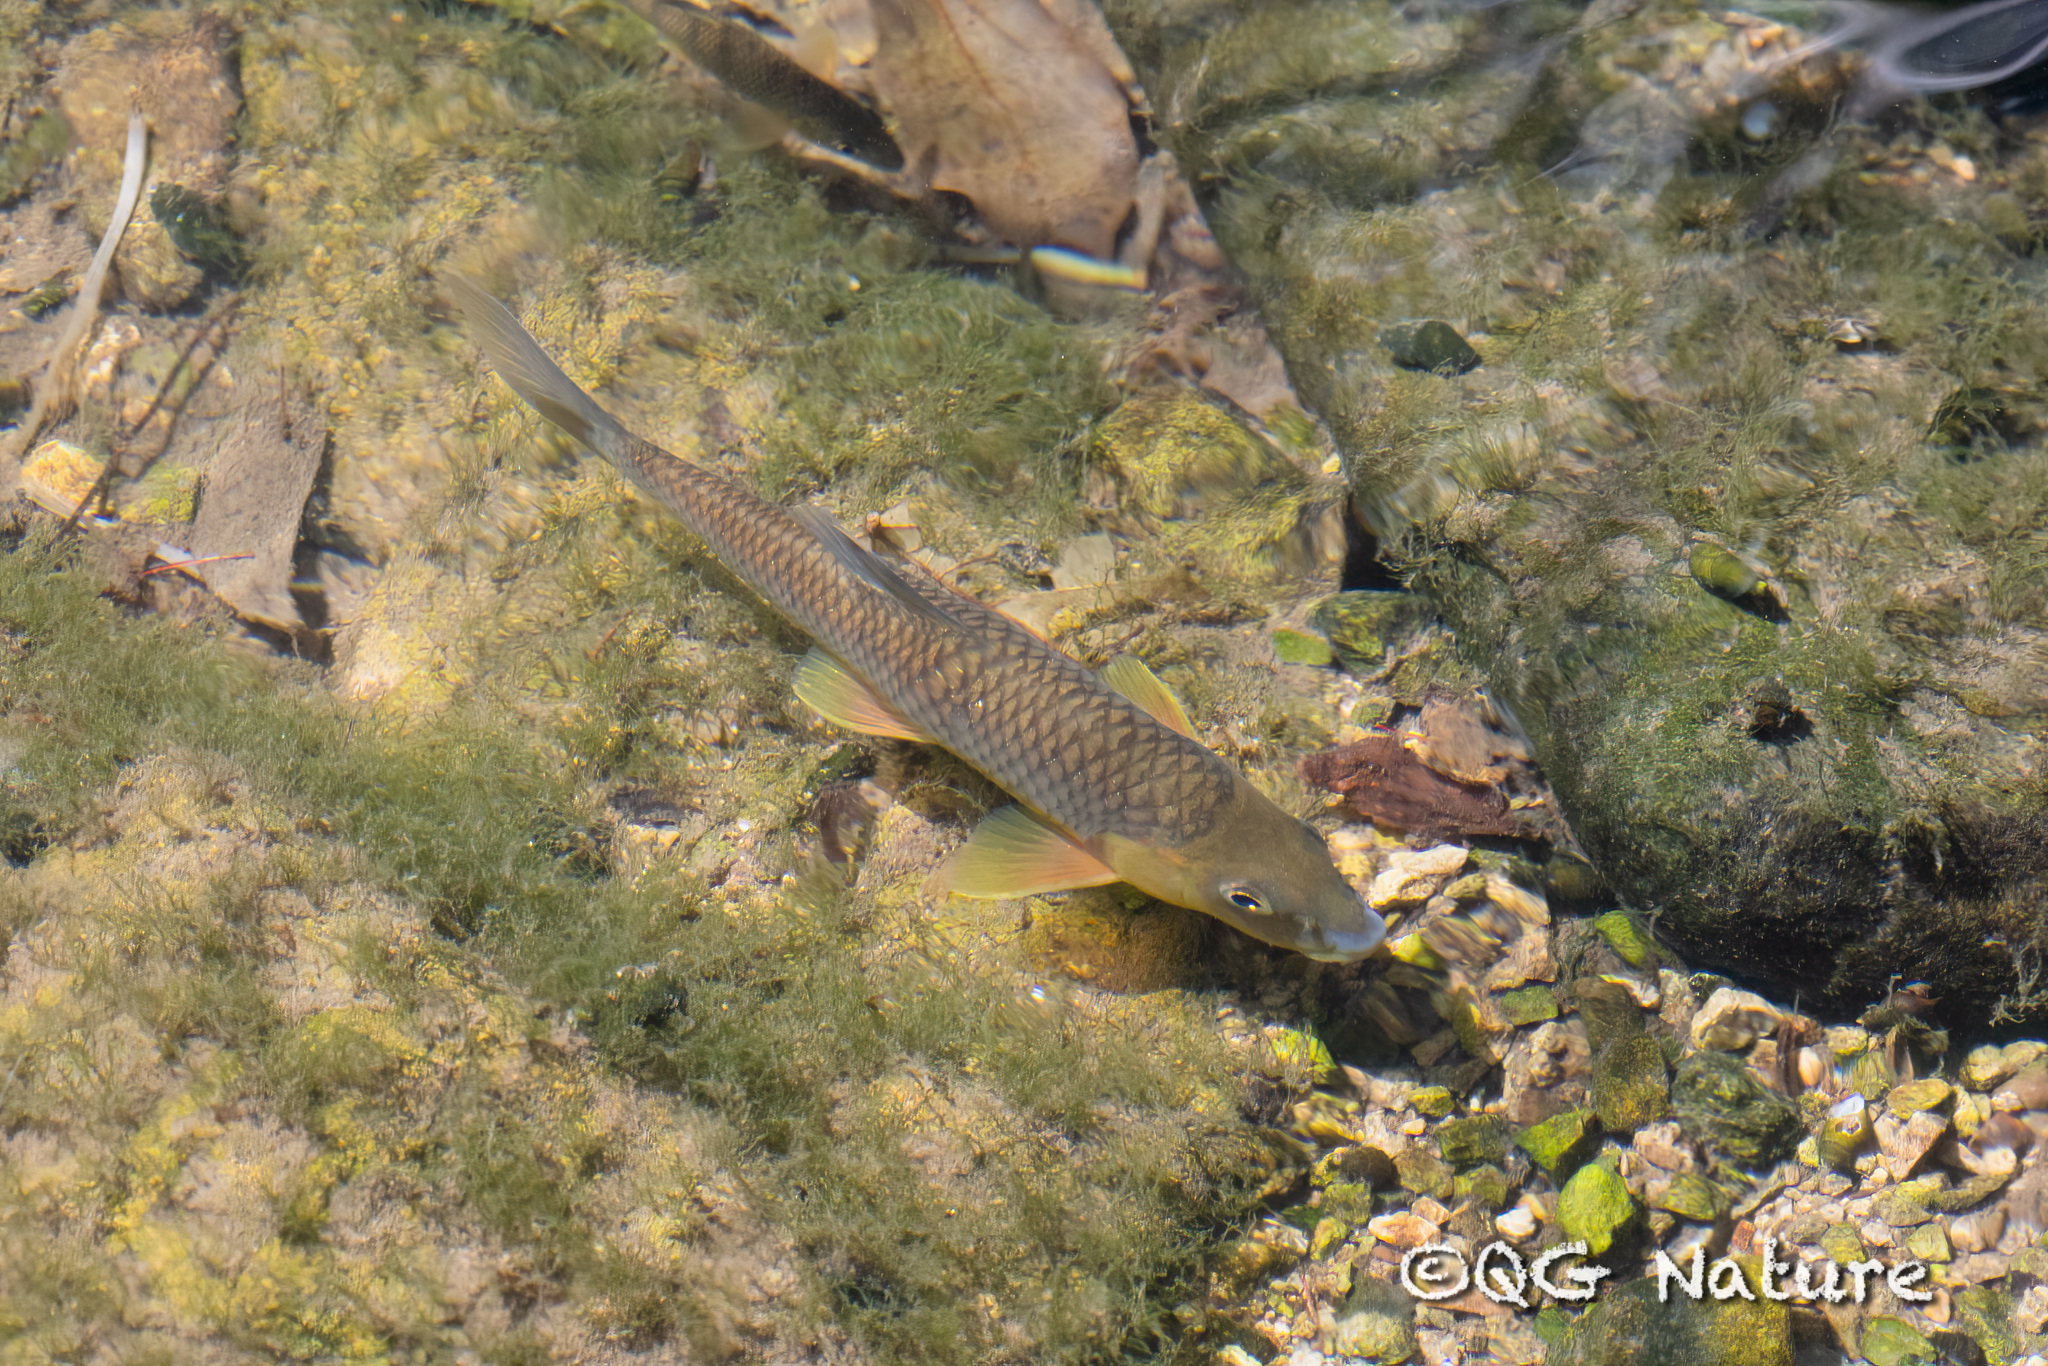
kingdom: Animalia
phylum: Chordata
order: Cypriniformes
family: Cyprinidae
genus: Acrossocheilus
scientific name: Acrossocheilus hemispinus
